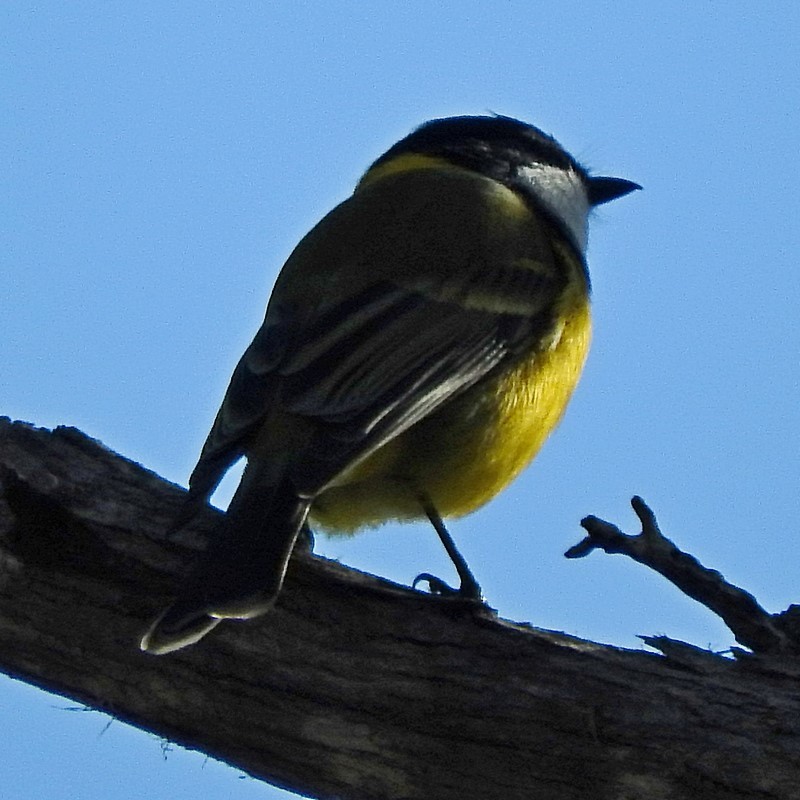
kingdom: Animalia
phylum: Chordata
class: Aves
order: Passeriformes
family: Pachycephalidae
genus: Pachycephala
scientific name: Pachycephala pectoralis
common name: Australian golden whistler
